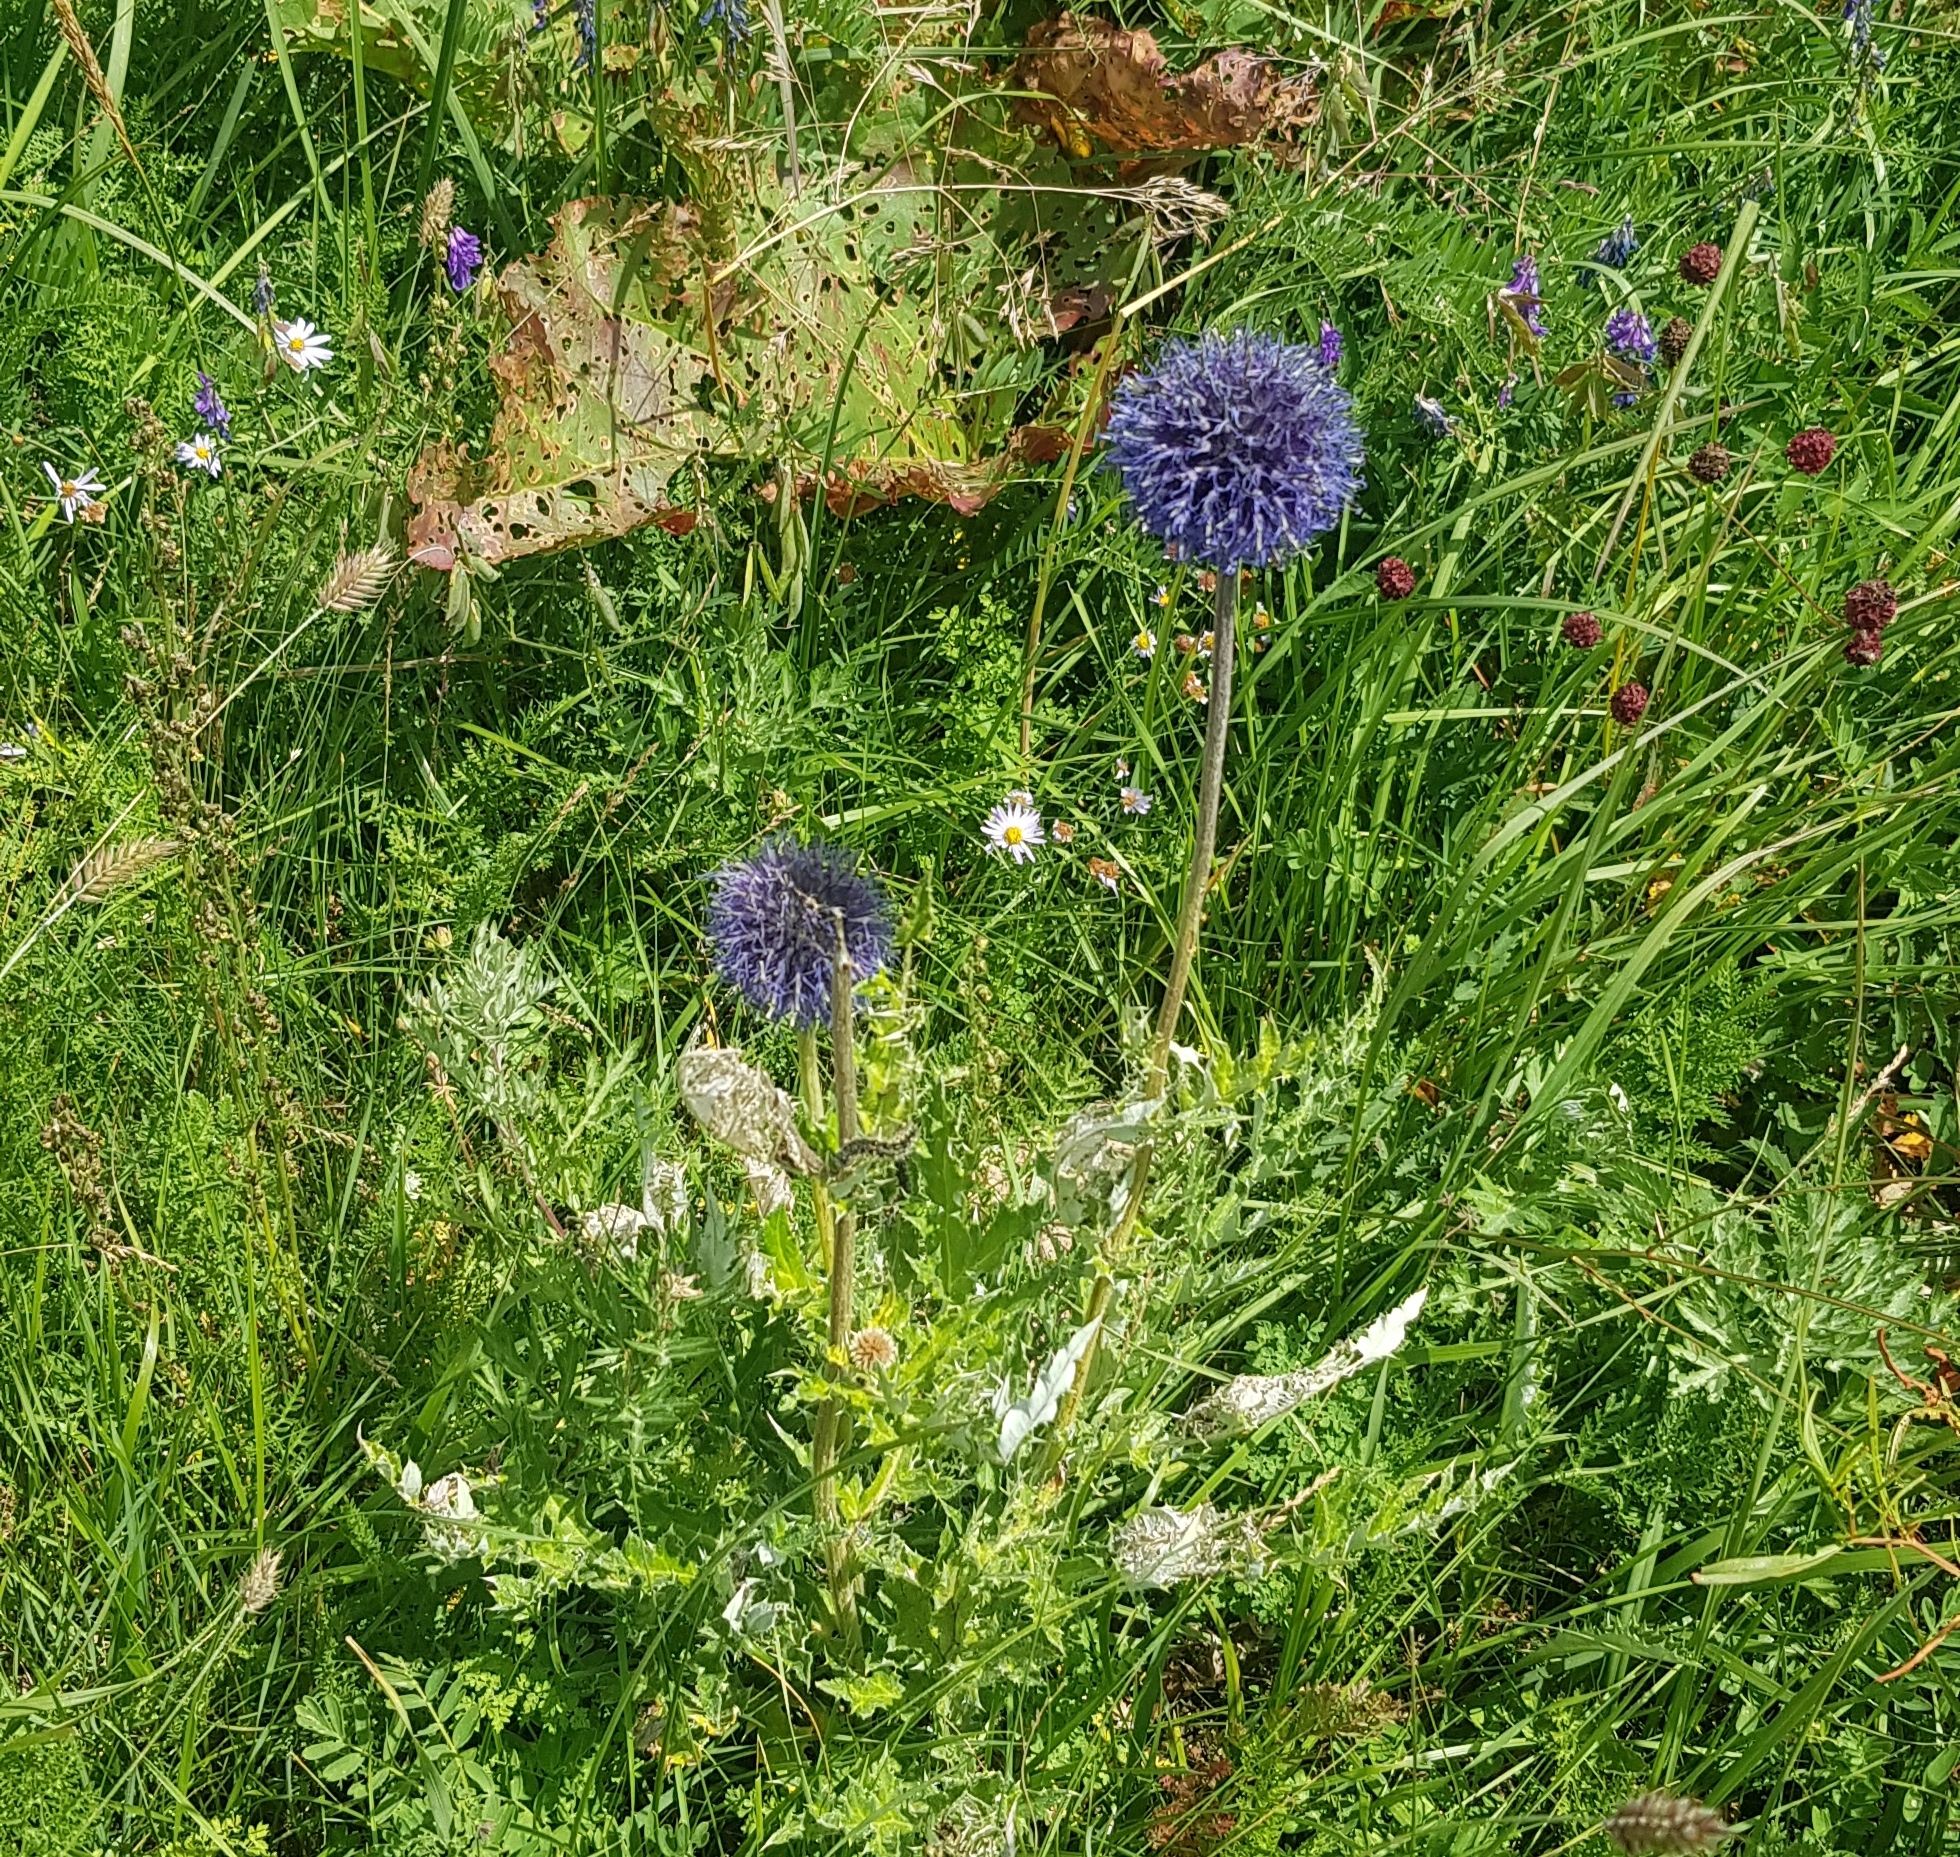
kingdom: Plantae
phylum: Tracheophyta
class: Magnoliopsida
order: Asterales
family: Asteraceae
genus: Echinops
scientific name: Echinops davuricus
